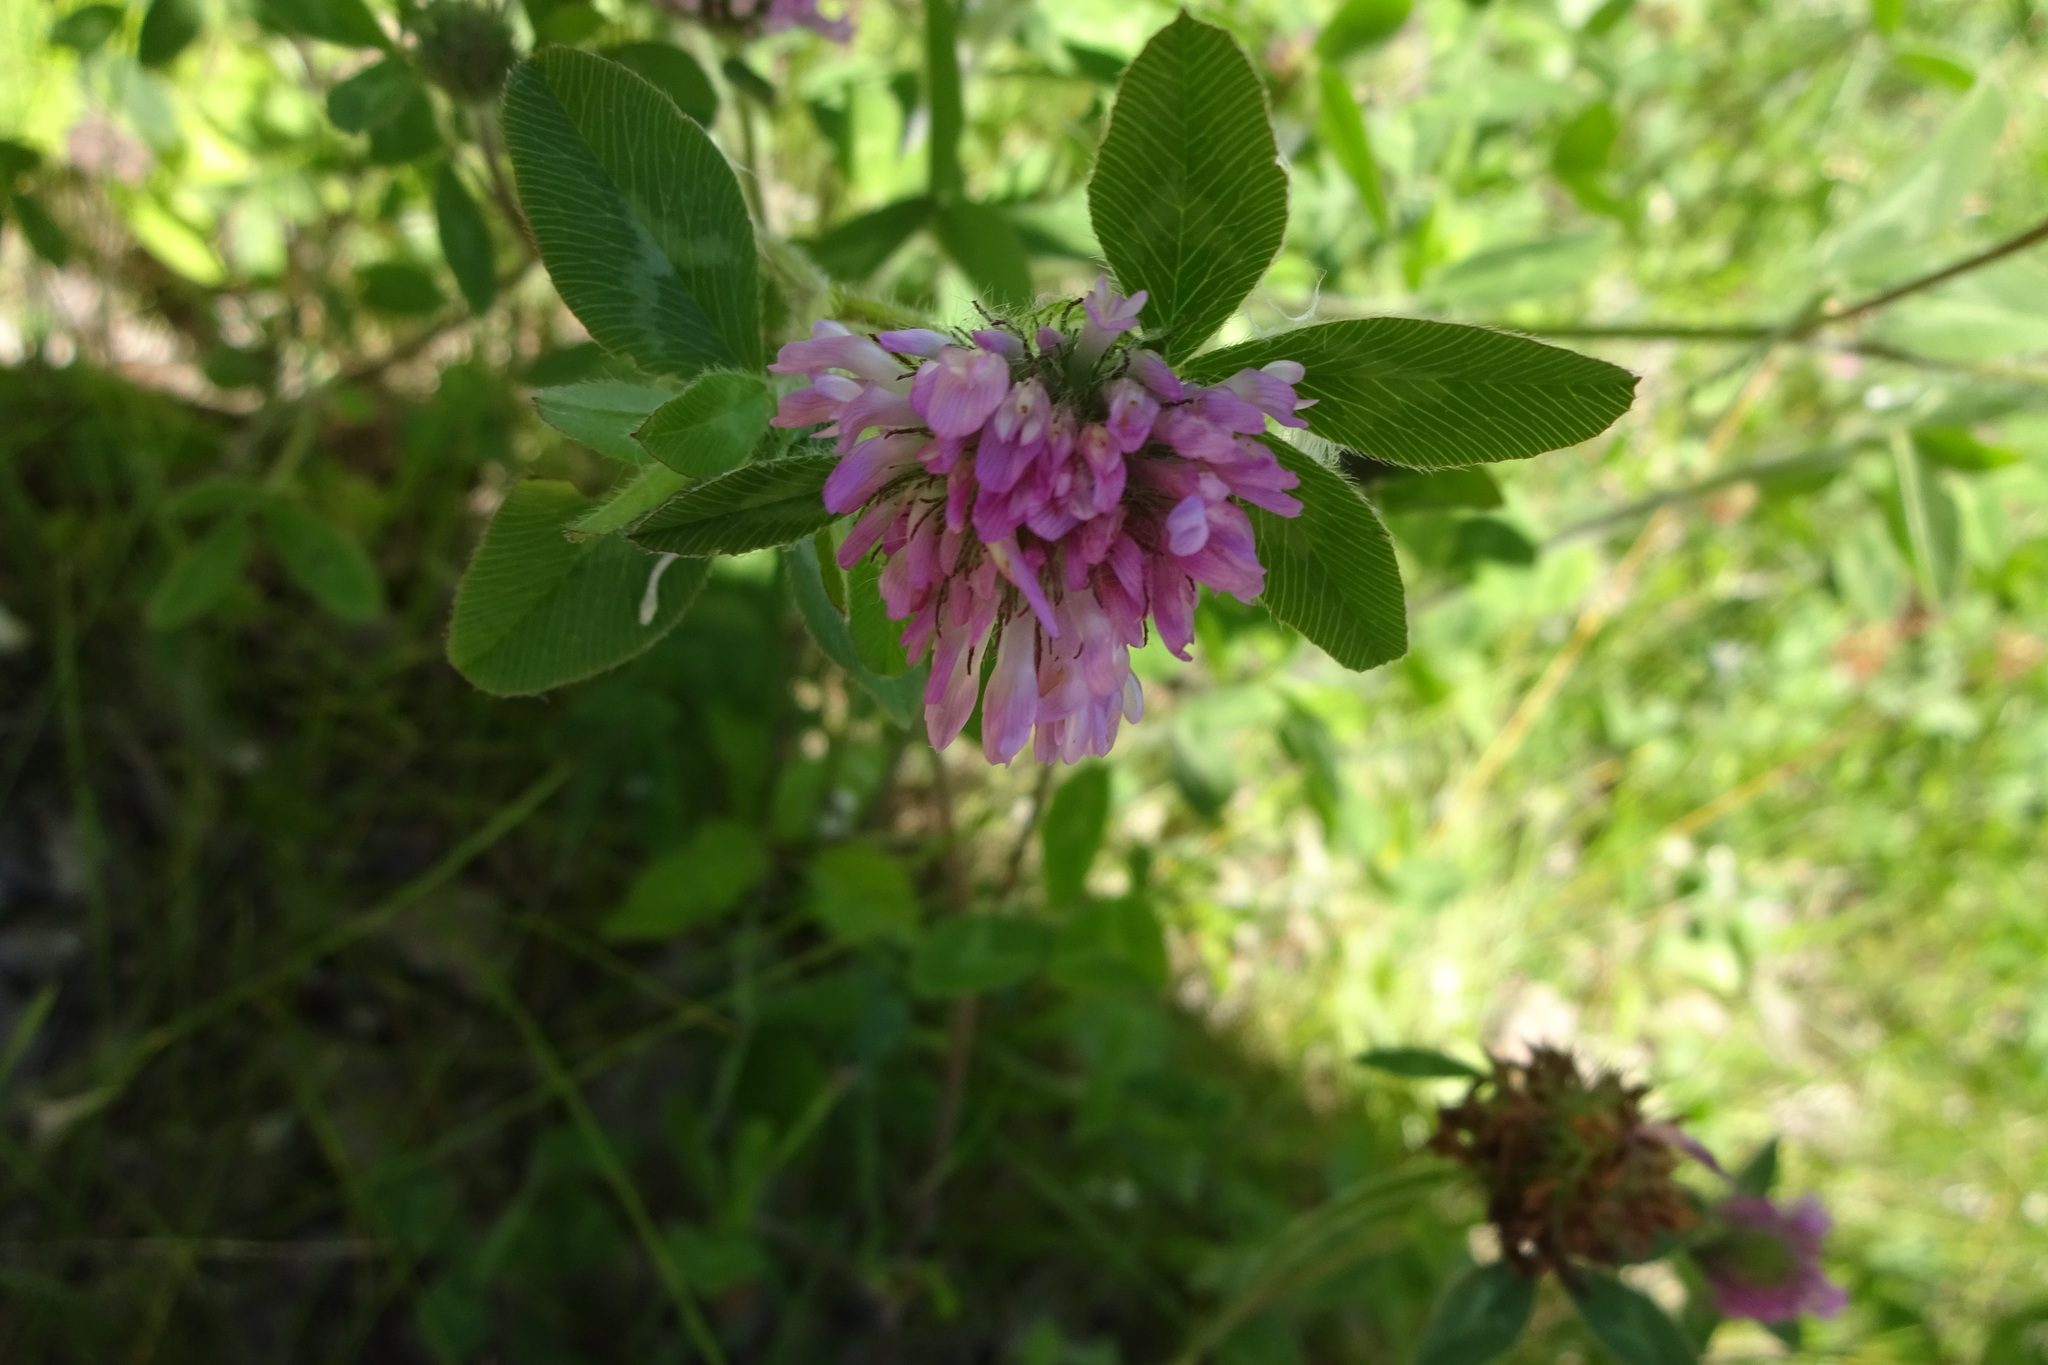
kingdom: Plantae
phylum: Tracheophyta
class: Magnoliopsida
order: Fabales
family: Fabaceae
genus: Trifolium
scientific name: Trifolium pratense
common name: Red clover
